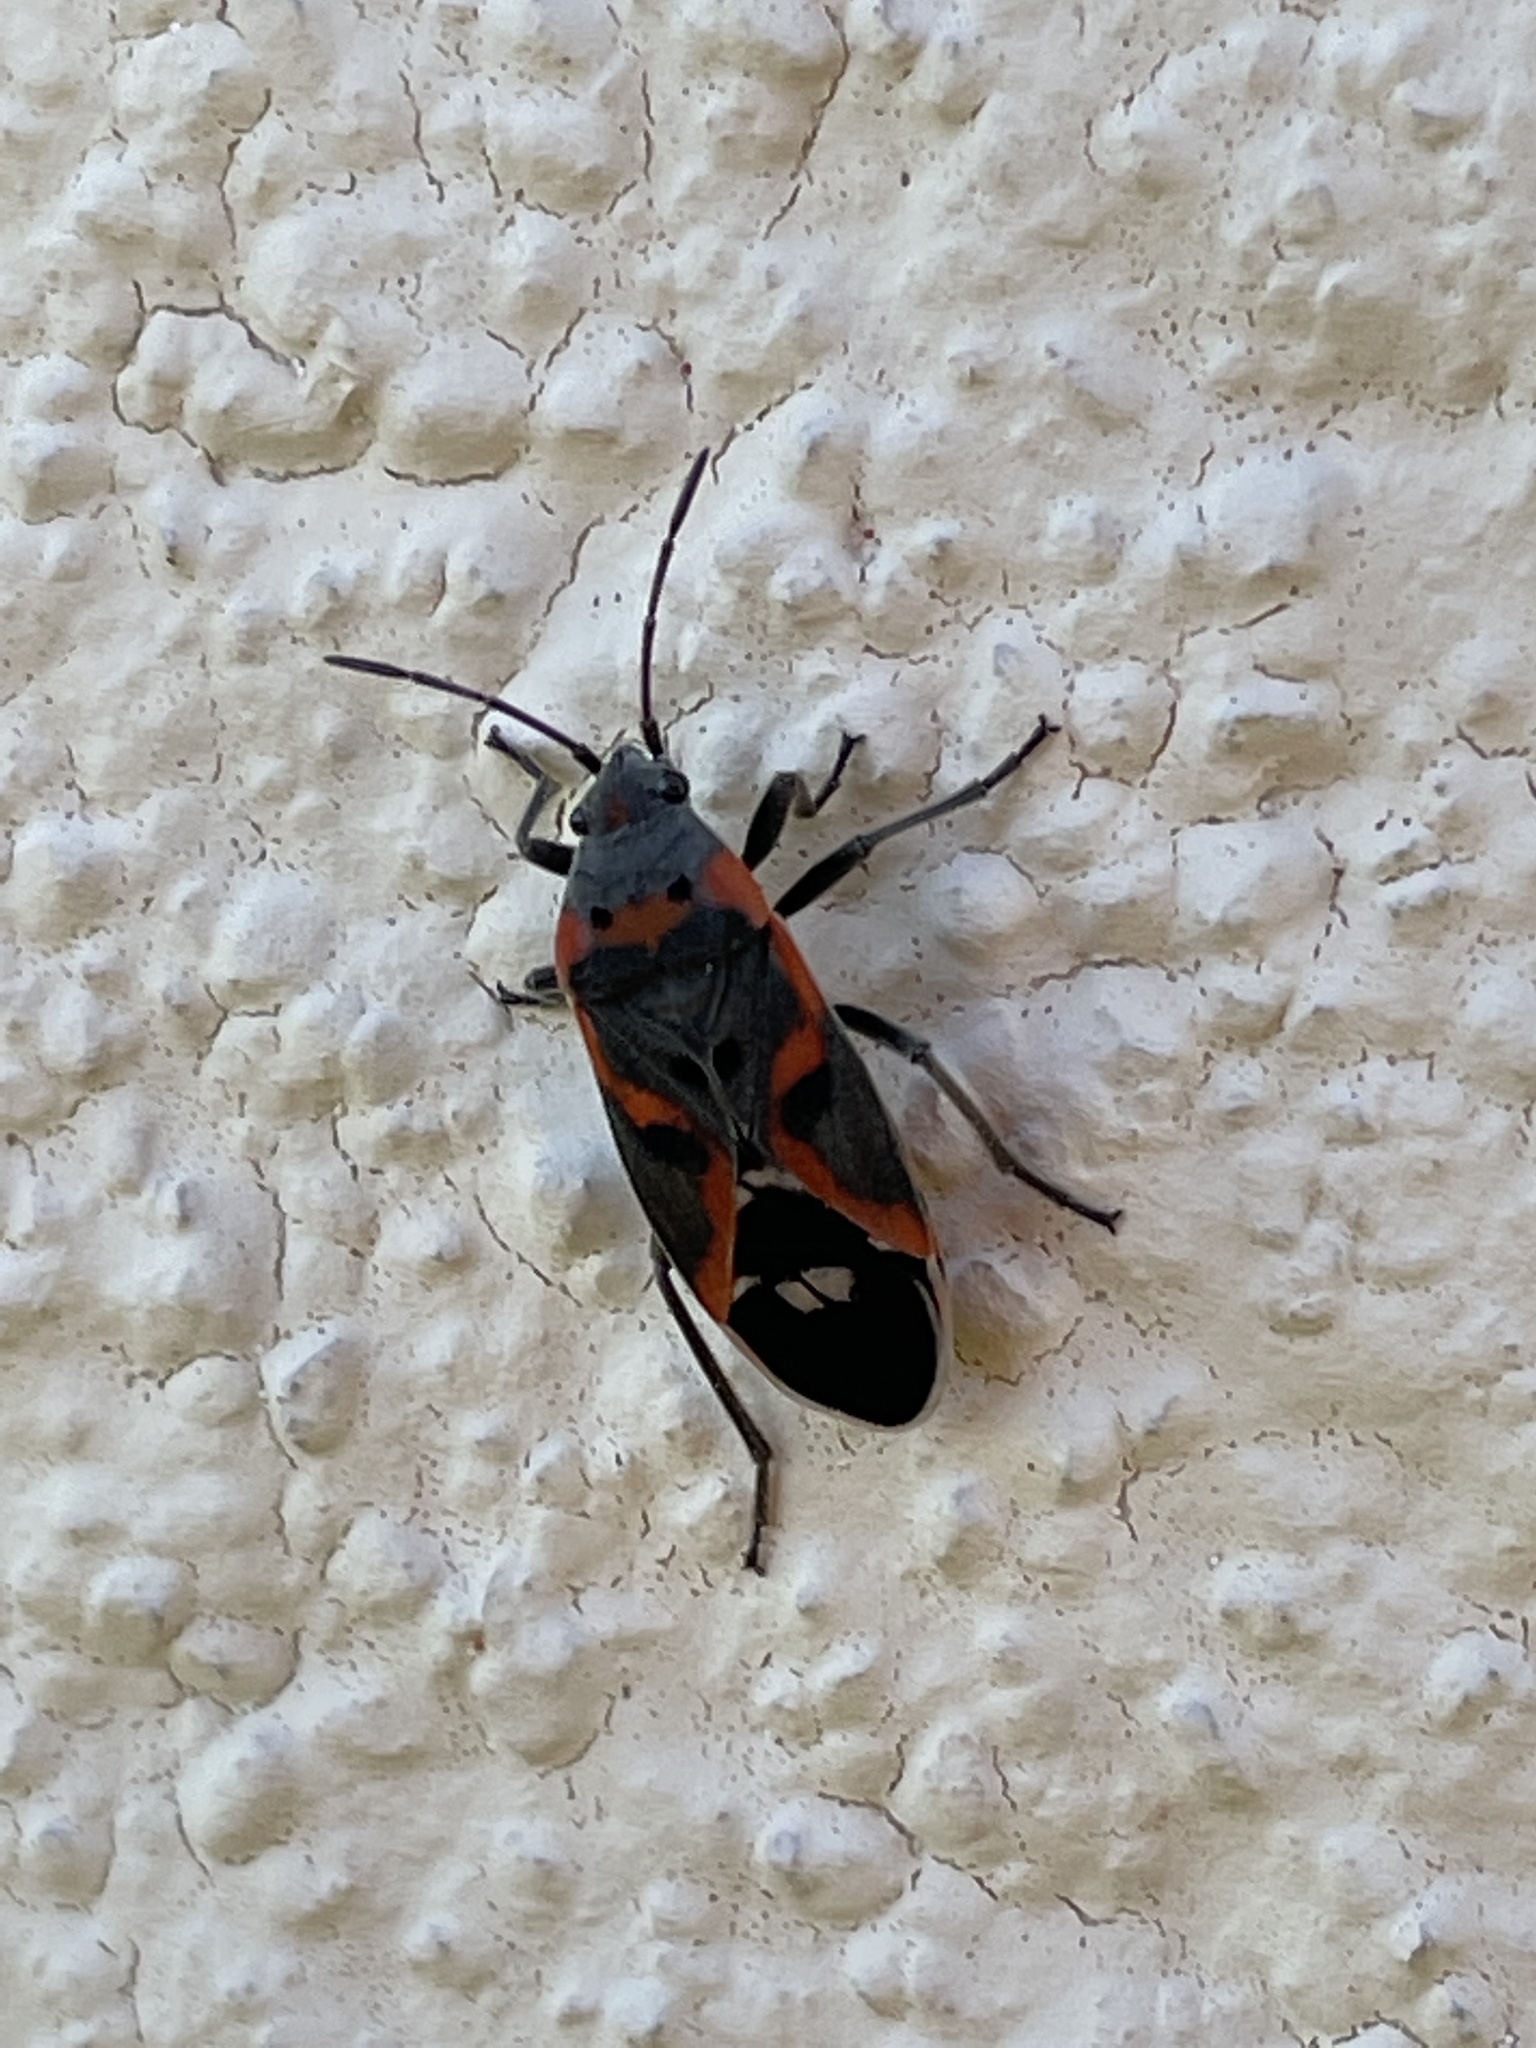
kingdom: Animalia
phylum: Arthropoda
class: Insecta
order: Hemiptera
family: Lygaeidae
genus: Lygaeus
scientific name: Lygaeus kalmii
